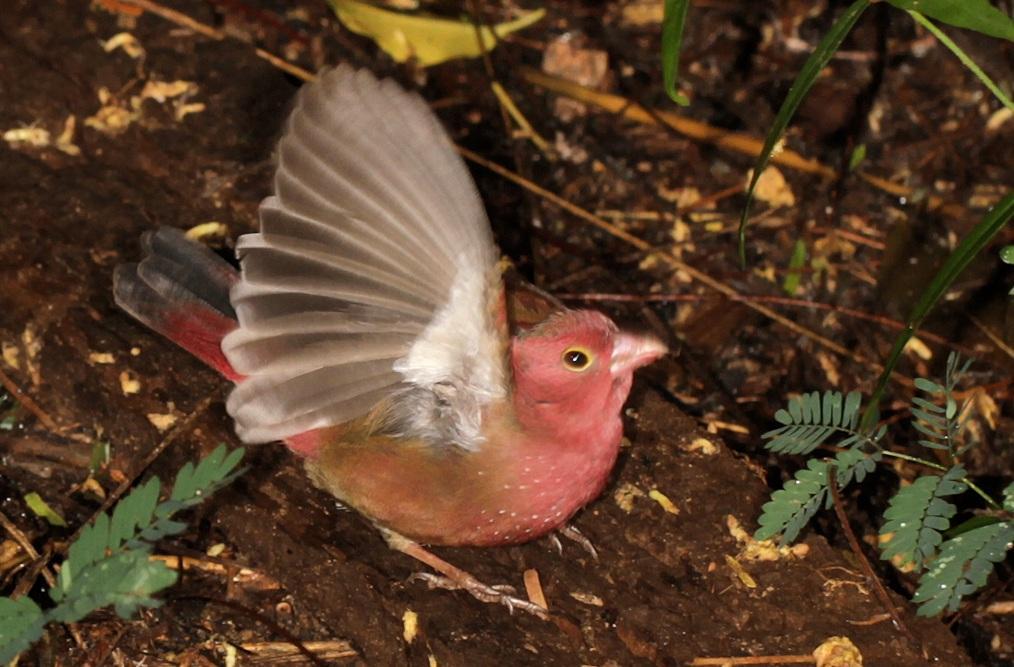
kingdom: Animalia
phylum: Chordata
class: Aves
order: Passeriformes
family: Estrildidae
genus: Lagonosticta
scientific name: Lagonosticta senegala
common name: Red-billed firefinch
